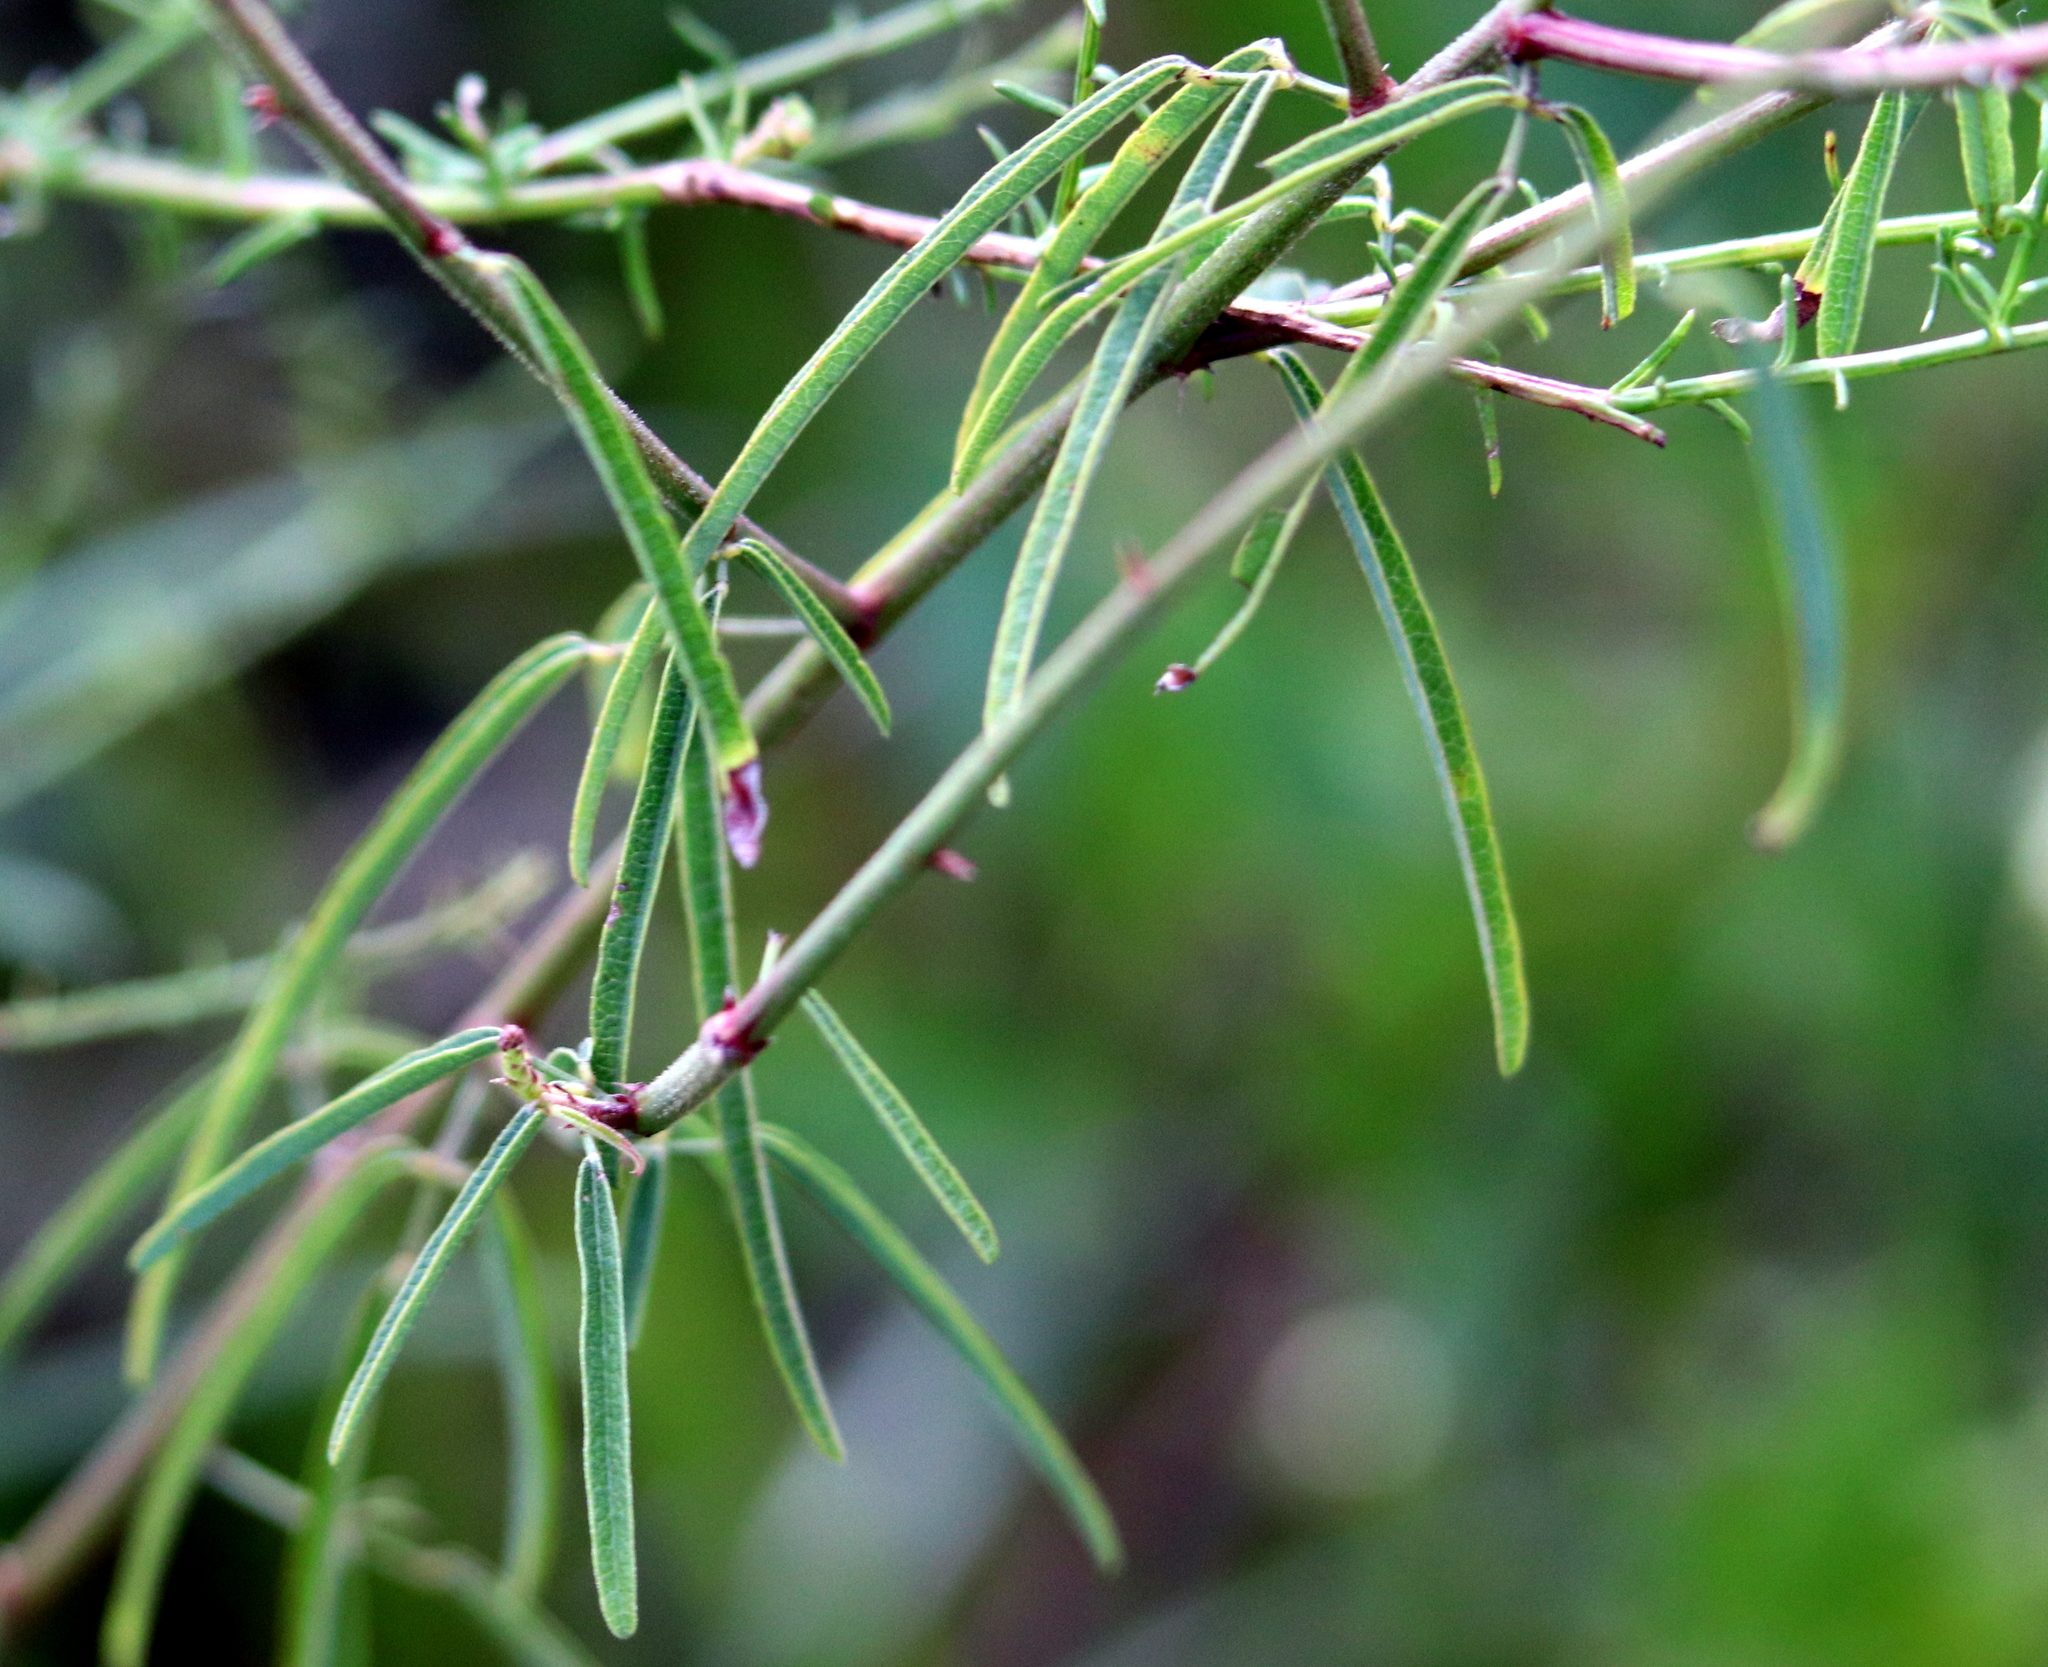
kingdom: Plantae
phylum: Tracheophyta
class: Magnoliopsida
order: Fabales
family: Fabaceae
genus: Desmodium
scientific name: Desmodium strictum
